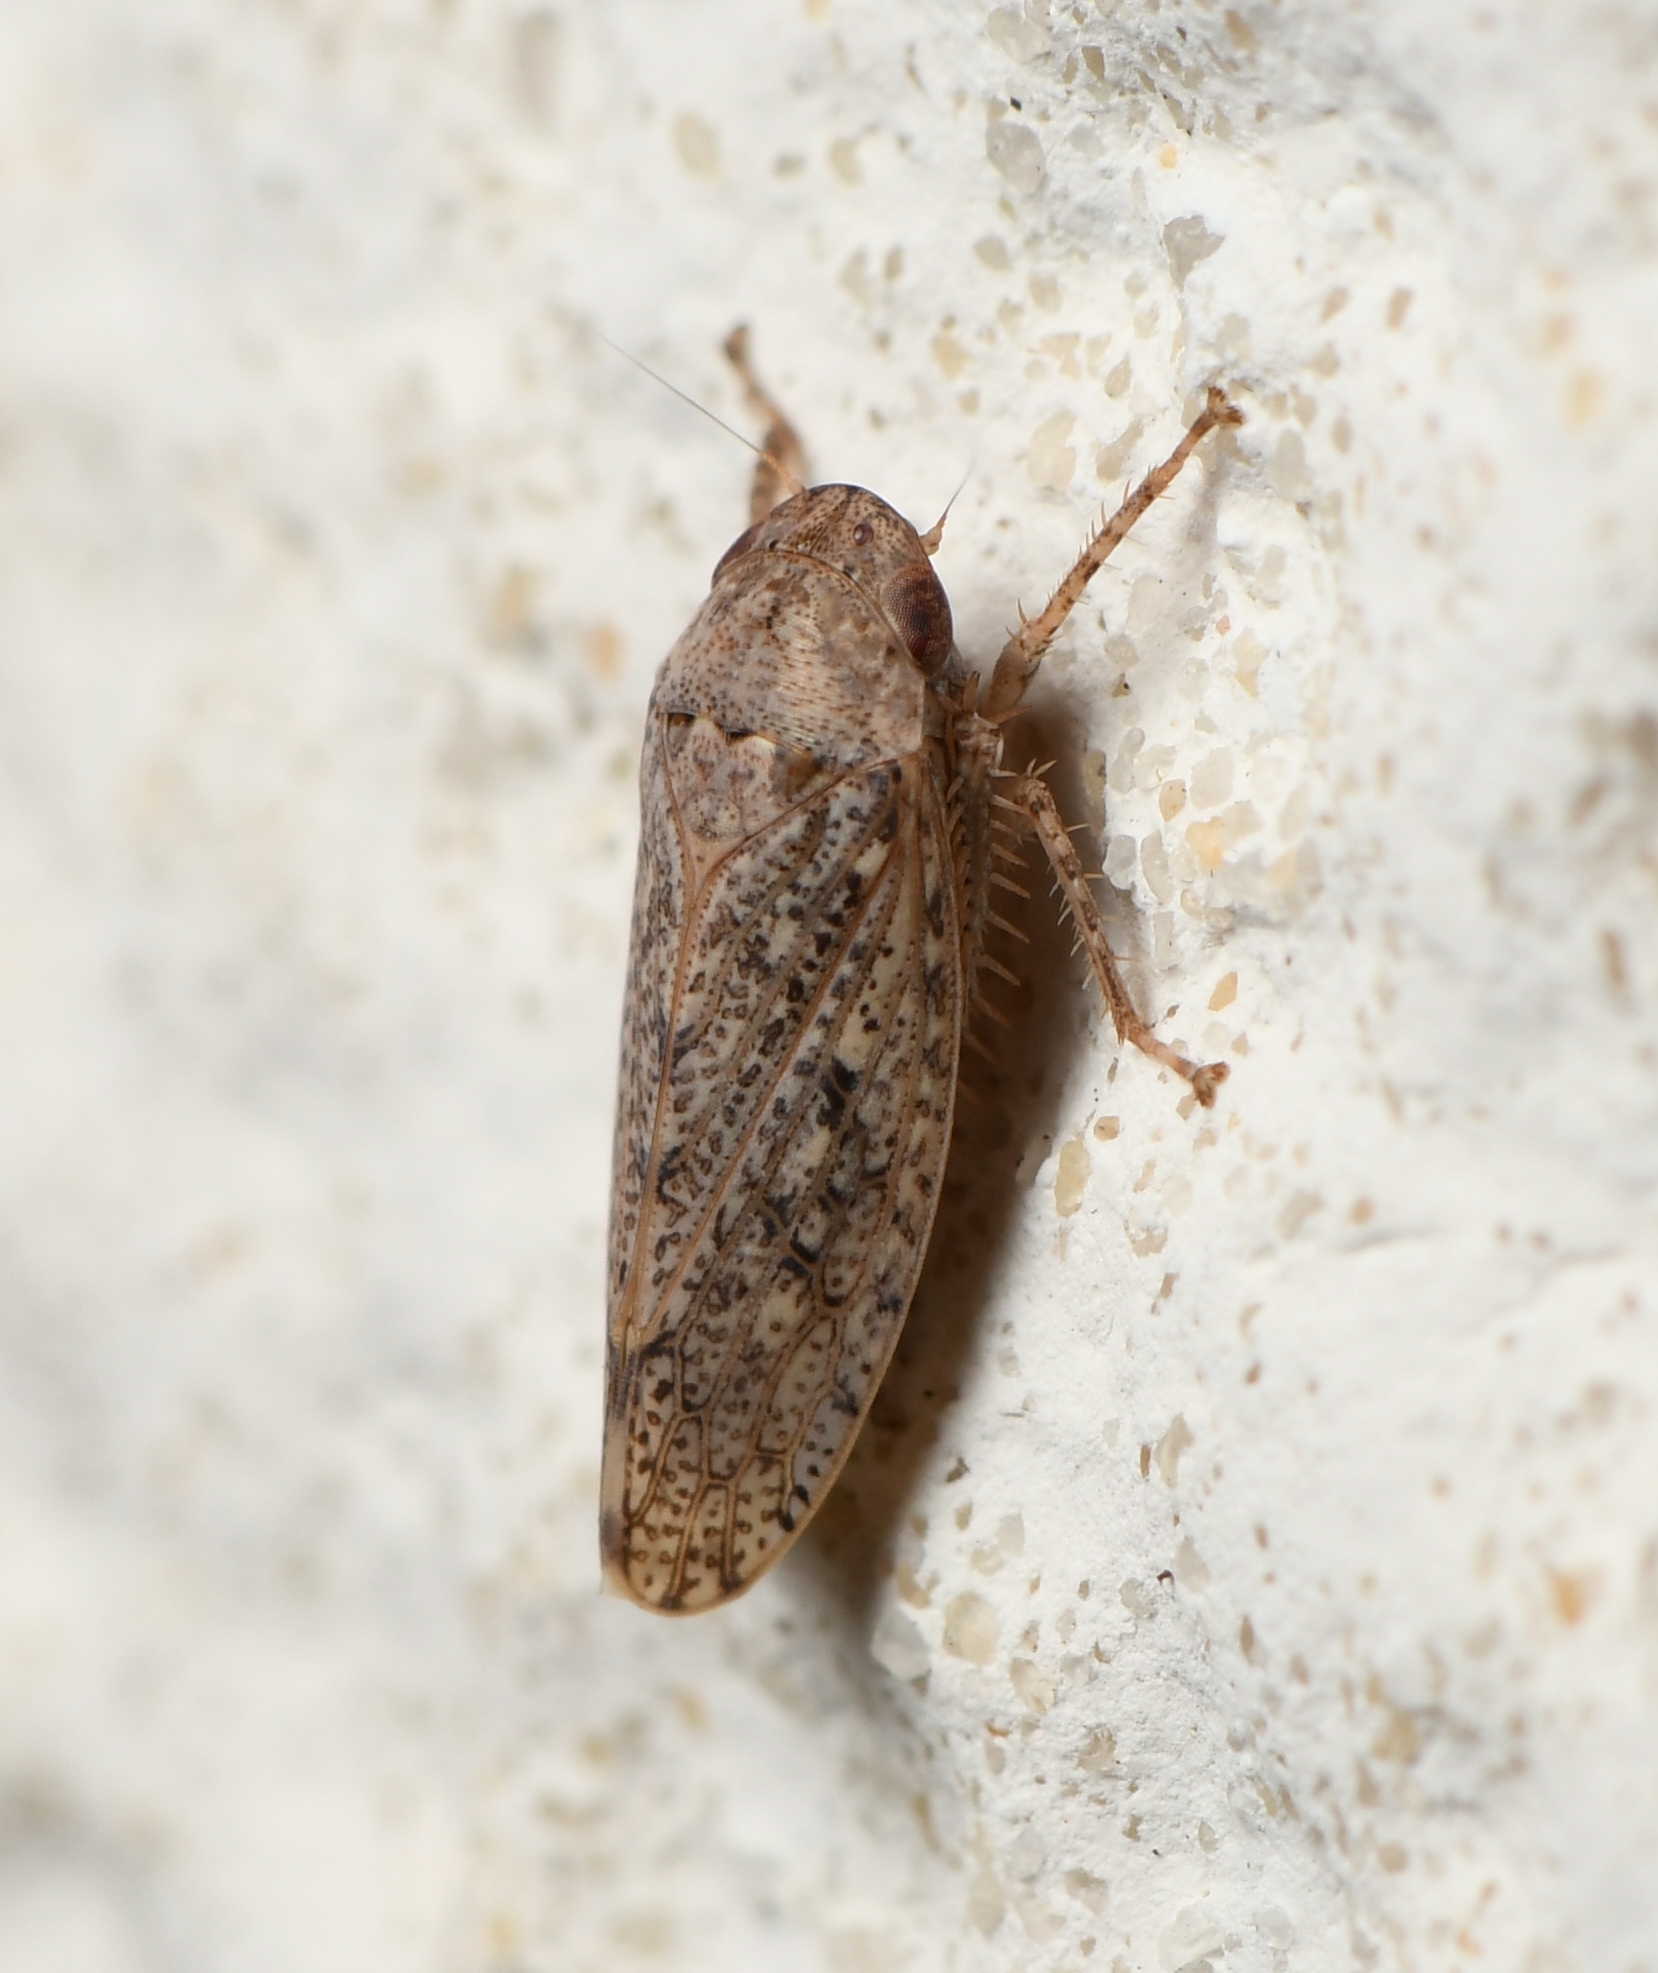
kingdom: Animalia
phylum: Arthropoda
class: Insecta
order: Hemiptera
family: Cicadellidae
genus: Curtara
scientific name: Curtara insularis
